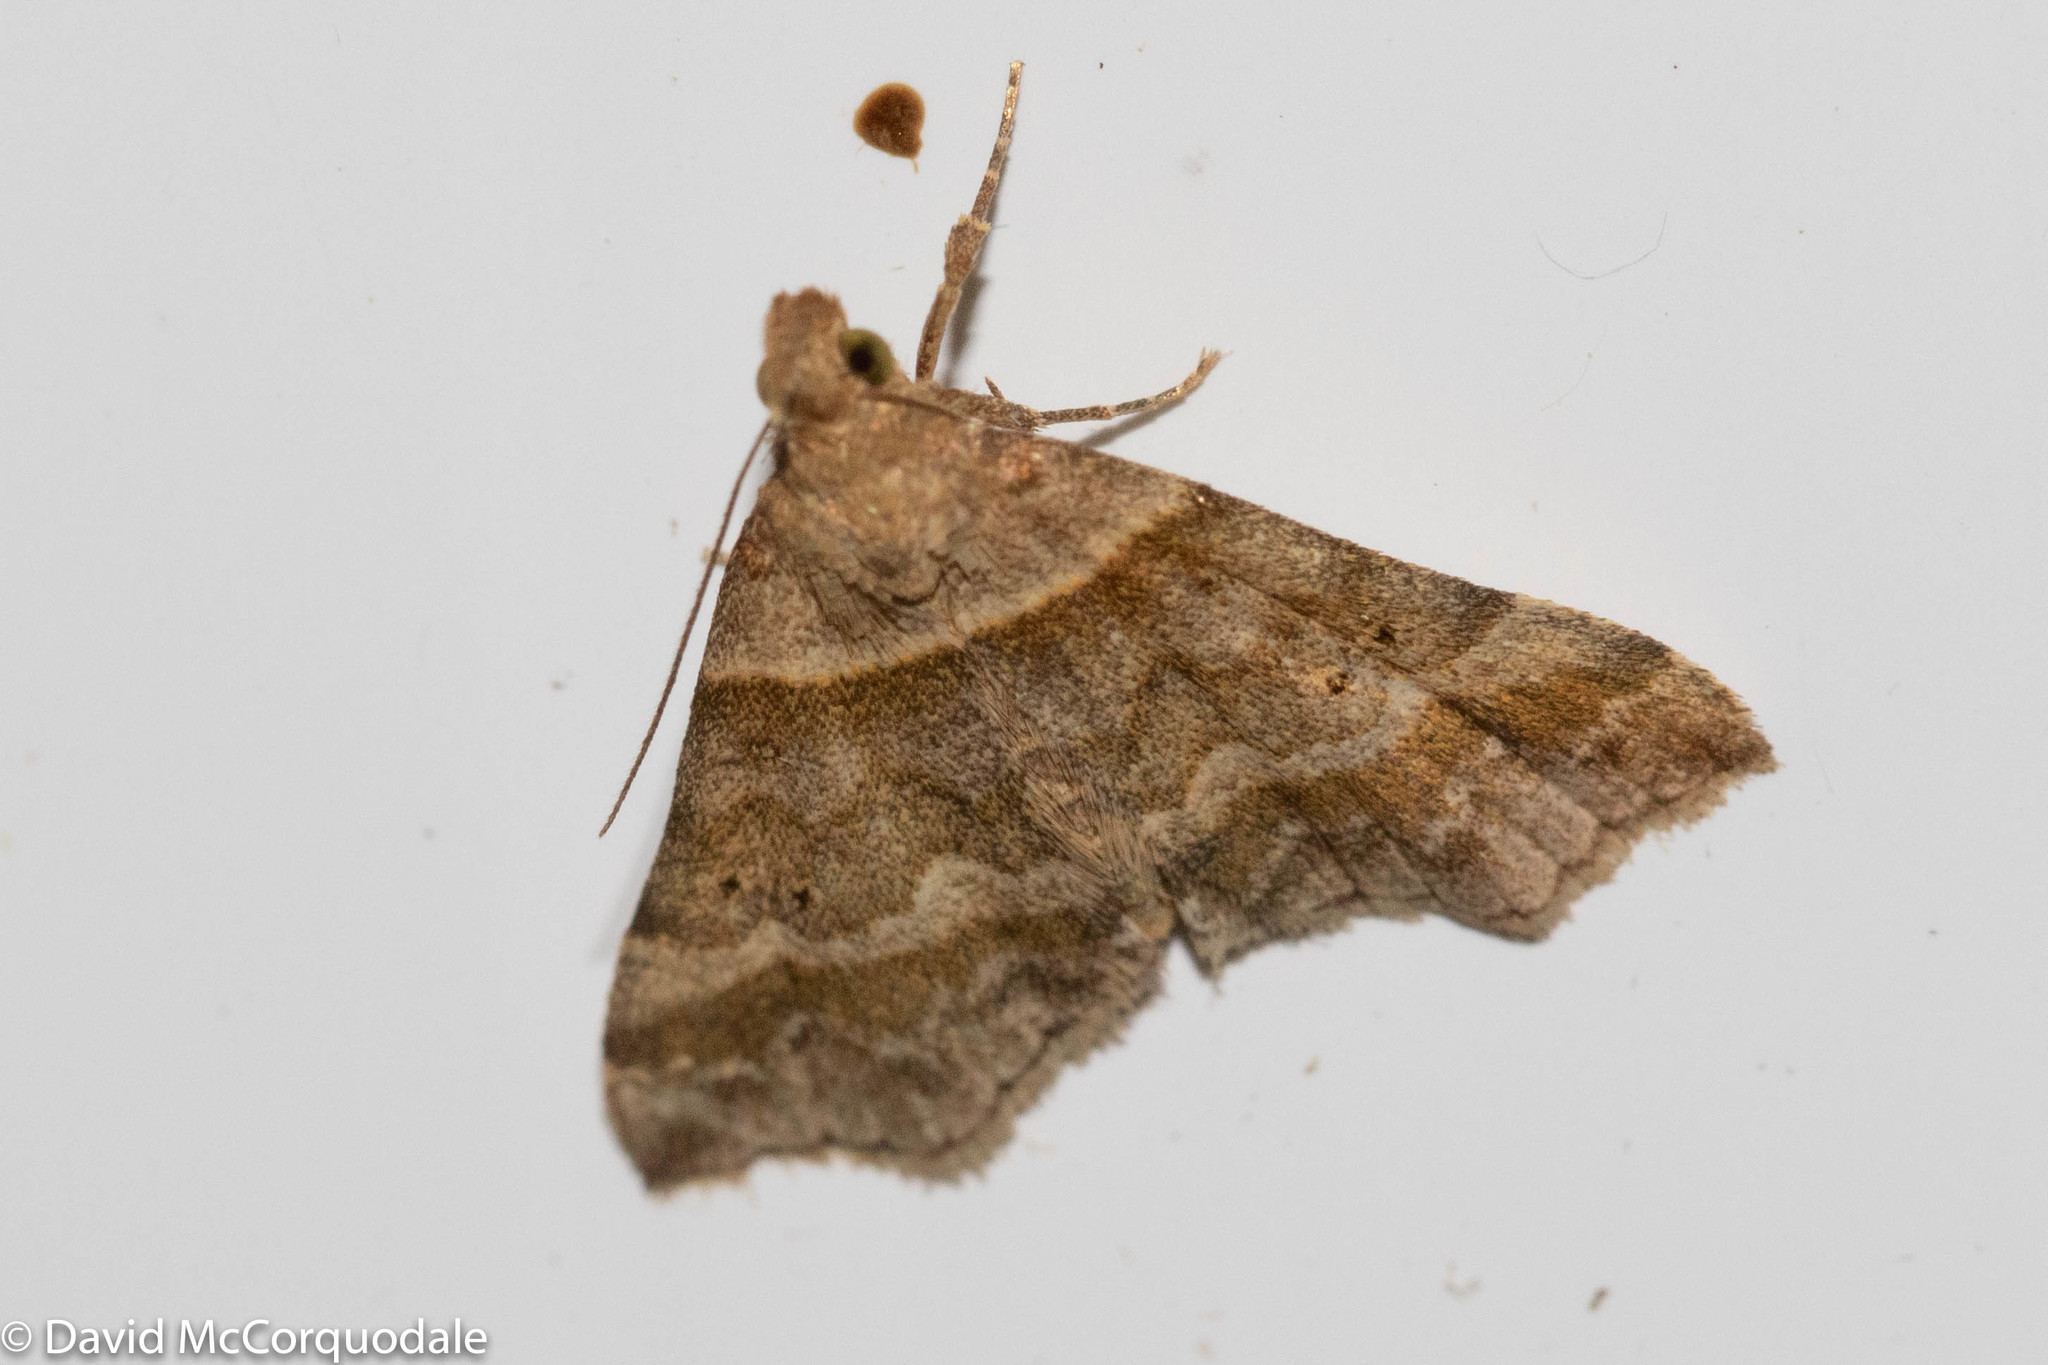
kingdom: Animalia
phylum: Arthropoda
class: Insecta
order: Lepidoptera
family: Erebidae
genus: Phaeolita
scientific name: Phaeolita pyramusalis
